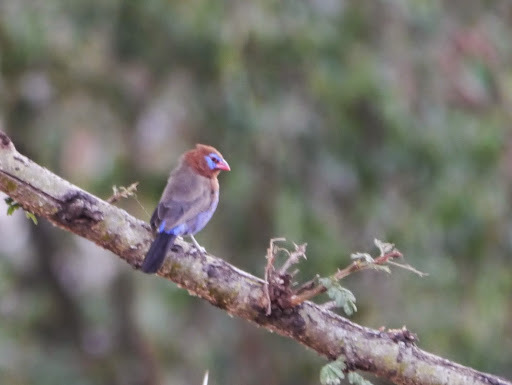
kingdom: Animalia
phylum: Chordata
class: Aves
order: Passeriformes
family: Estrildidae
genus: Uraeginthus
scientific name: Uraeginthus ianthinogaster
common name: Purple grenadier
